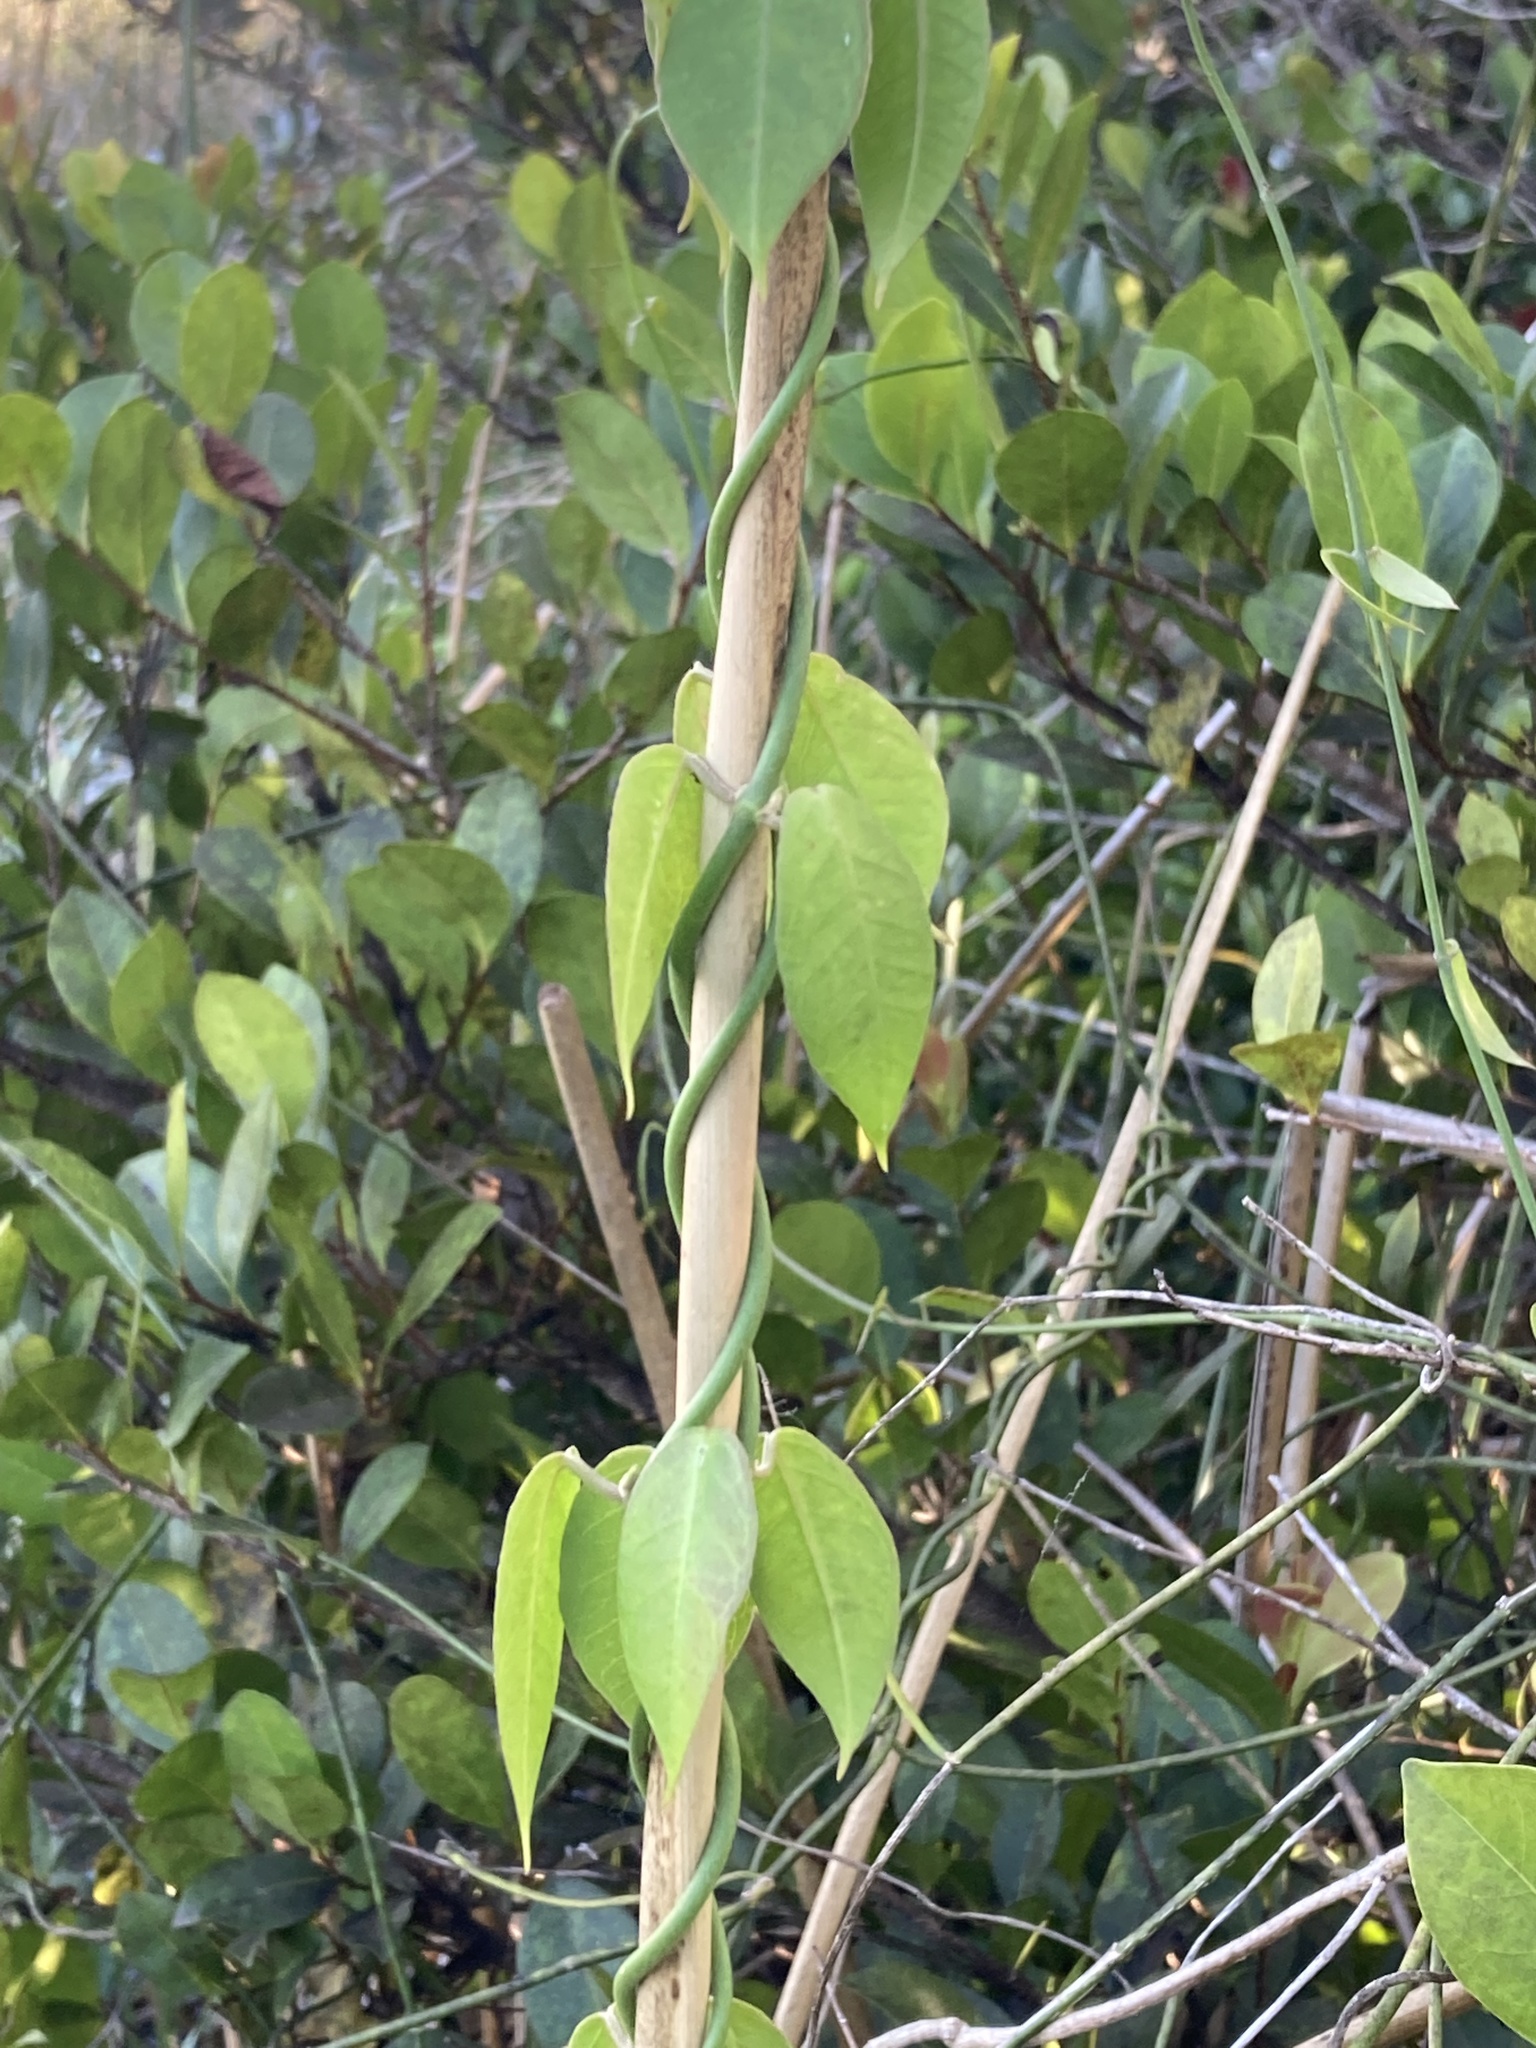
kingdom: Plantae
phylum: Tracheophyta
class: Magnoliopsida
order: Gentianales
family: Apocynaceae
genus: Funastrum
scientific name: Funastrum clausum
